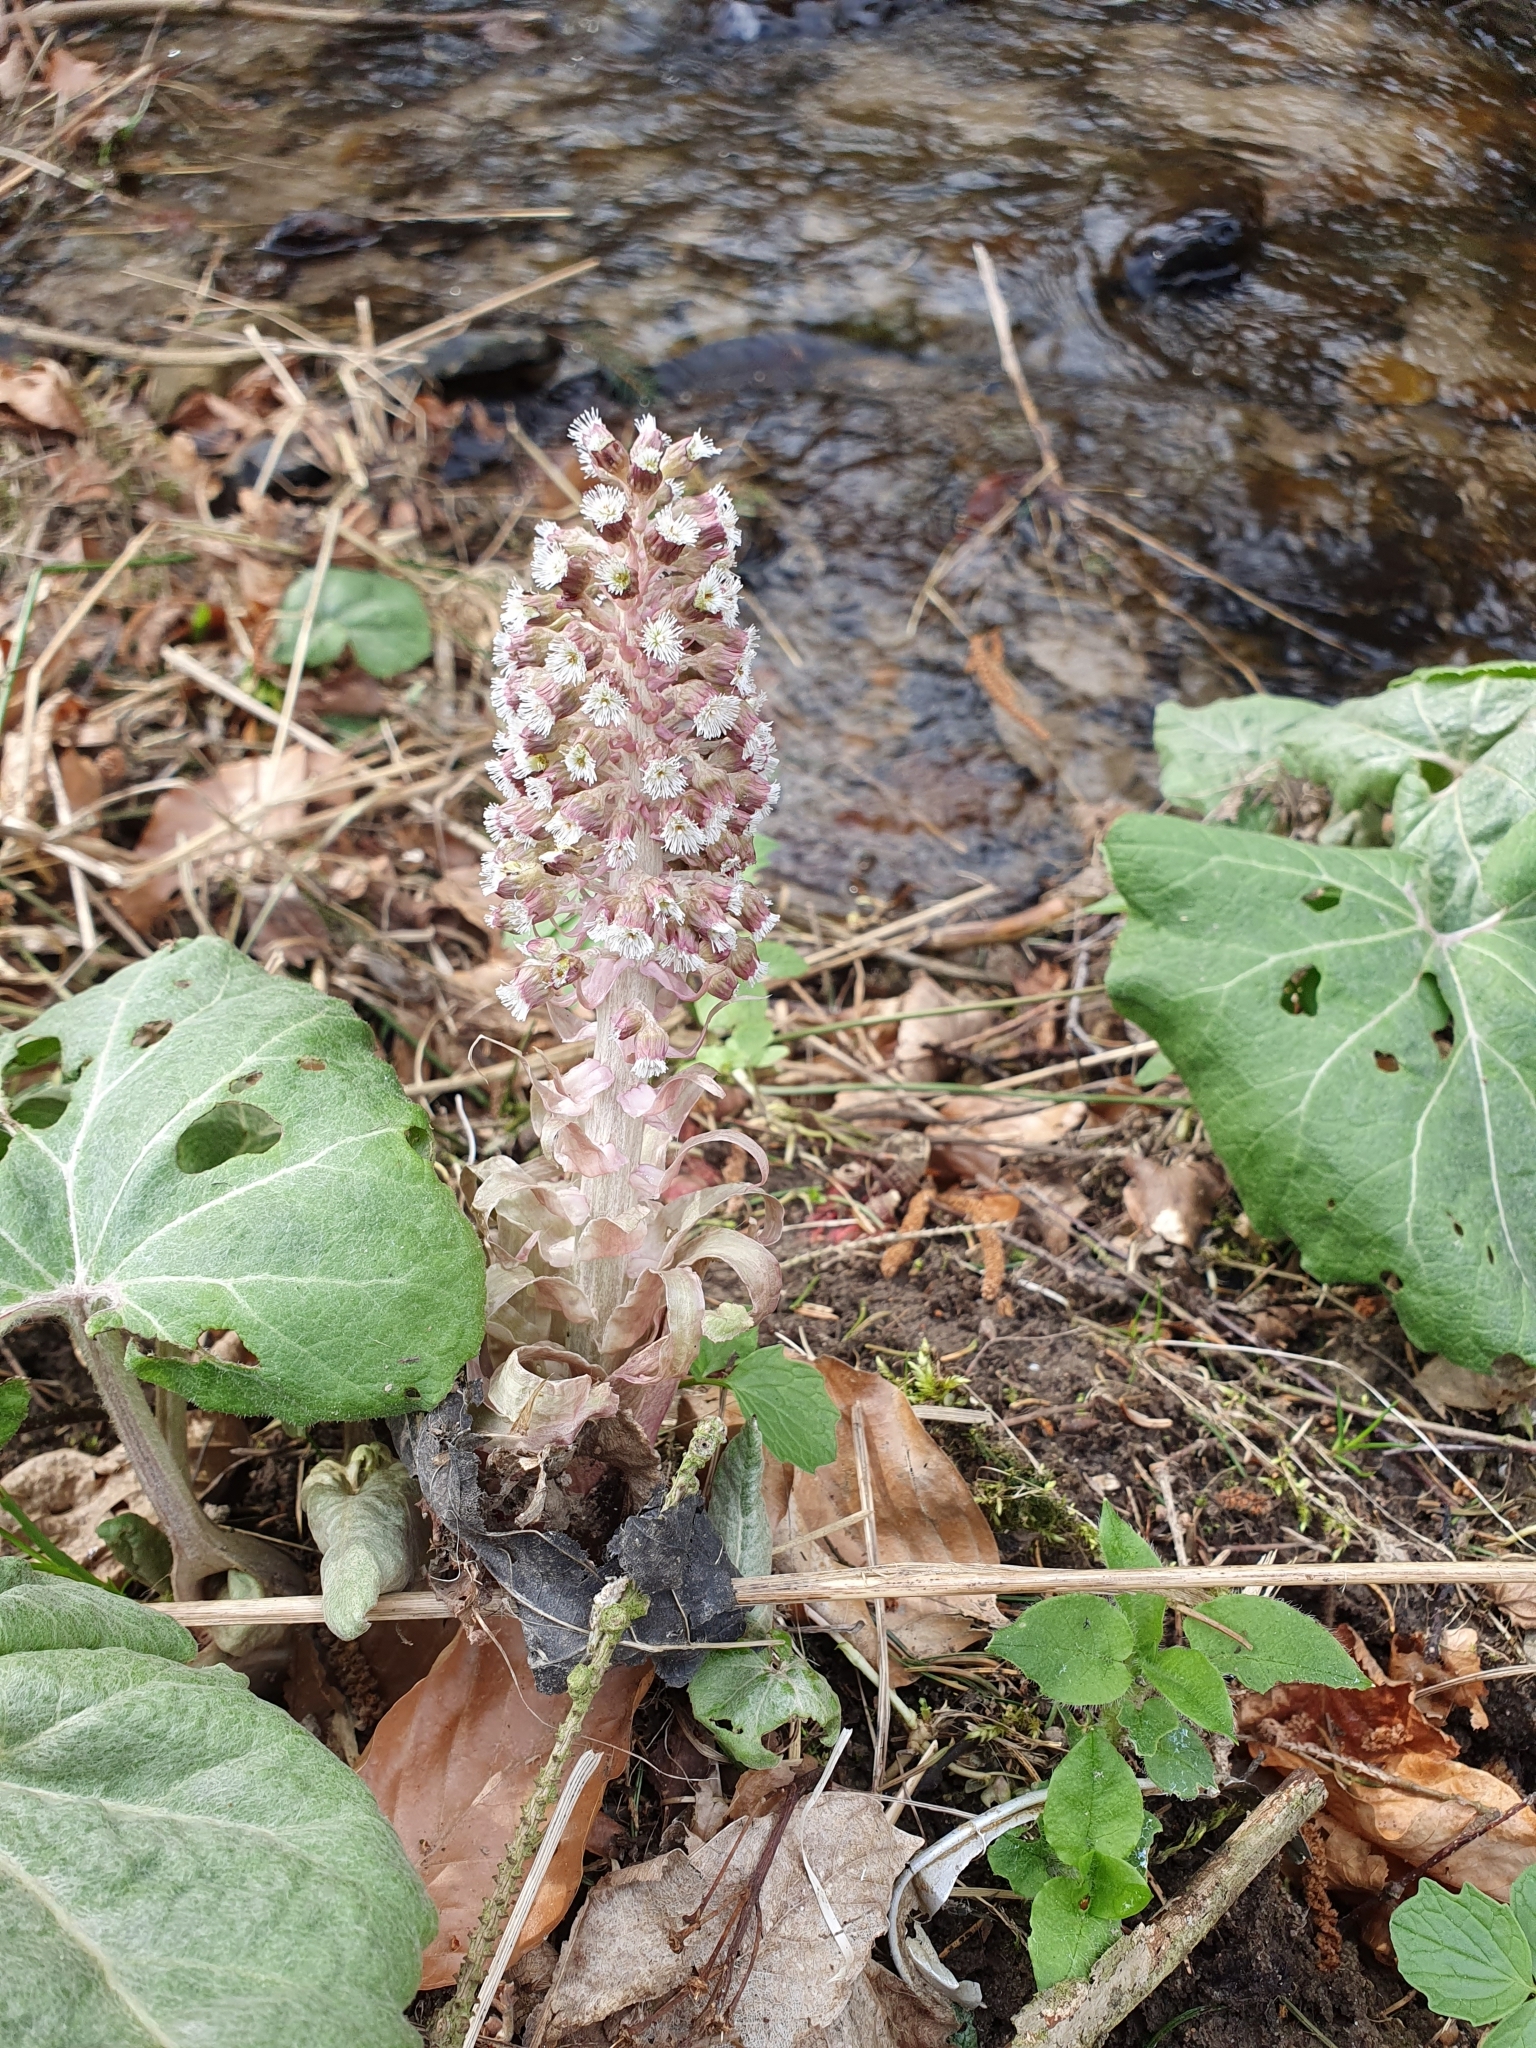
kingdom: Plantae
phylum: Tracheophyta
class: Magnoliopsida
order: Asterales
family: Asteraceae
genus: Petasites
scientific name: Petasites hybridus
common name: Butterbur
